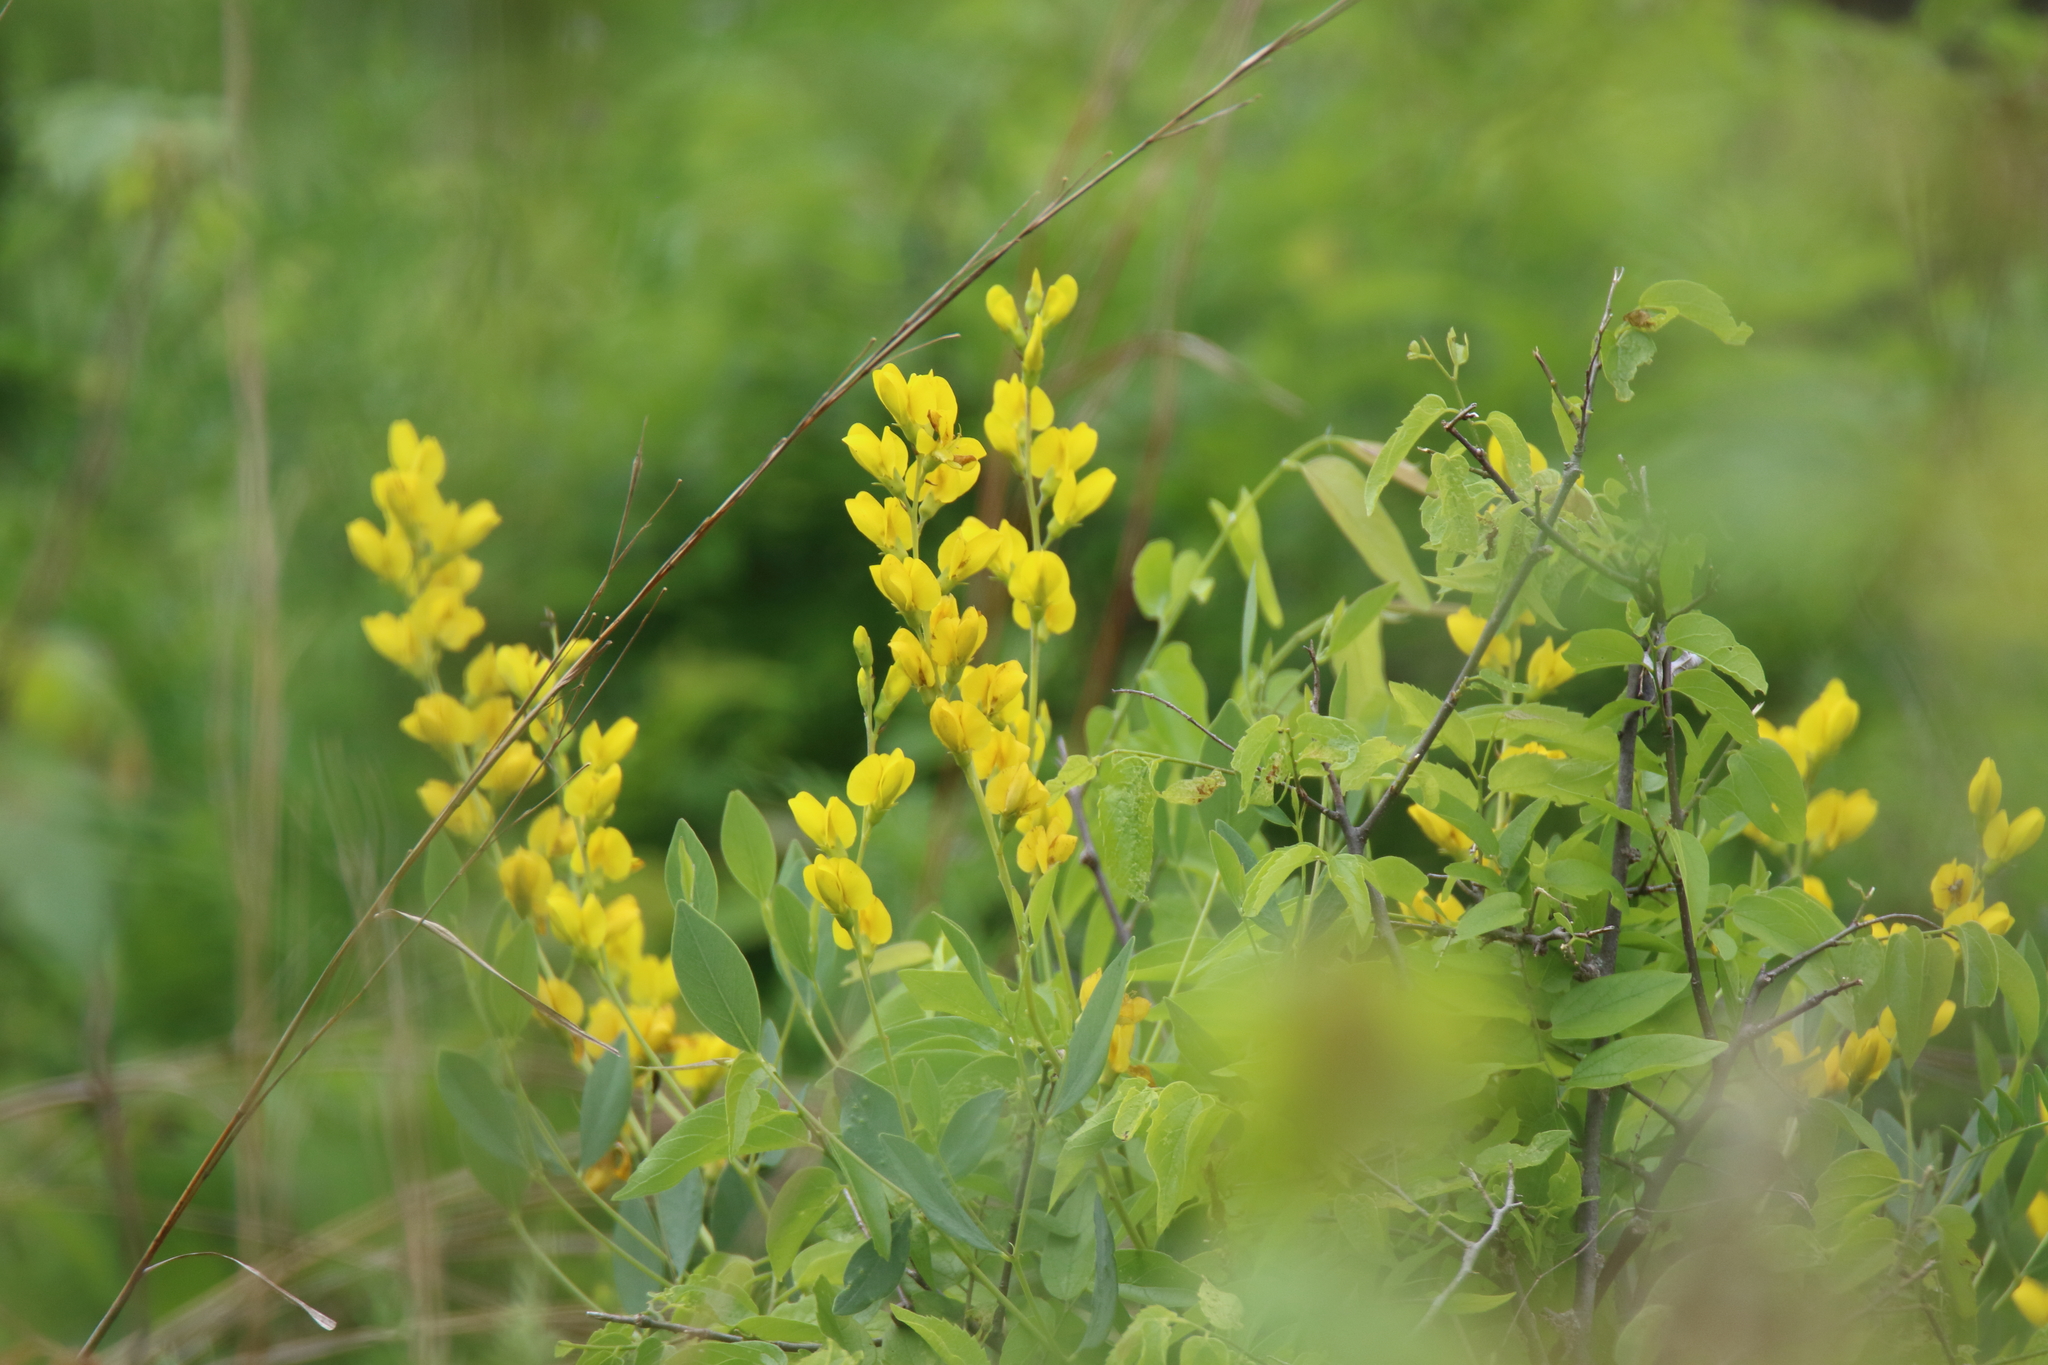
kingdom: Plantae
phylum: Tracheophyta
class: Magnoliopsida
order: Fabales
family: Fabaceae
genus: Baptisia
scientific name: Baptisia sphaerocarpa
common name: Round wild indigo
